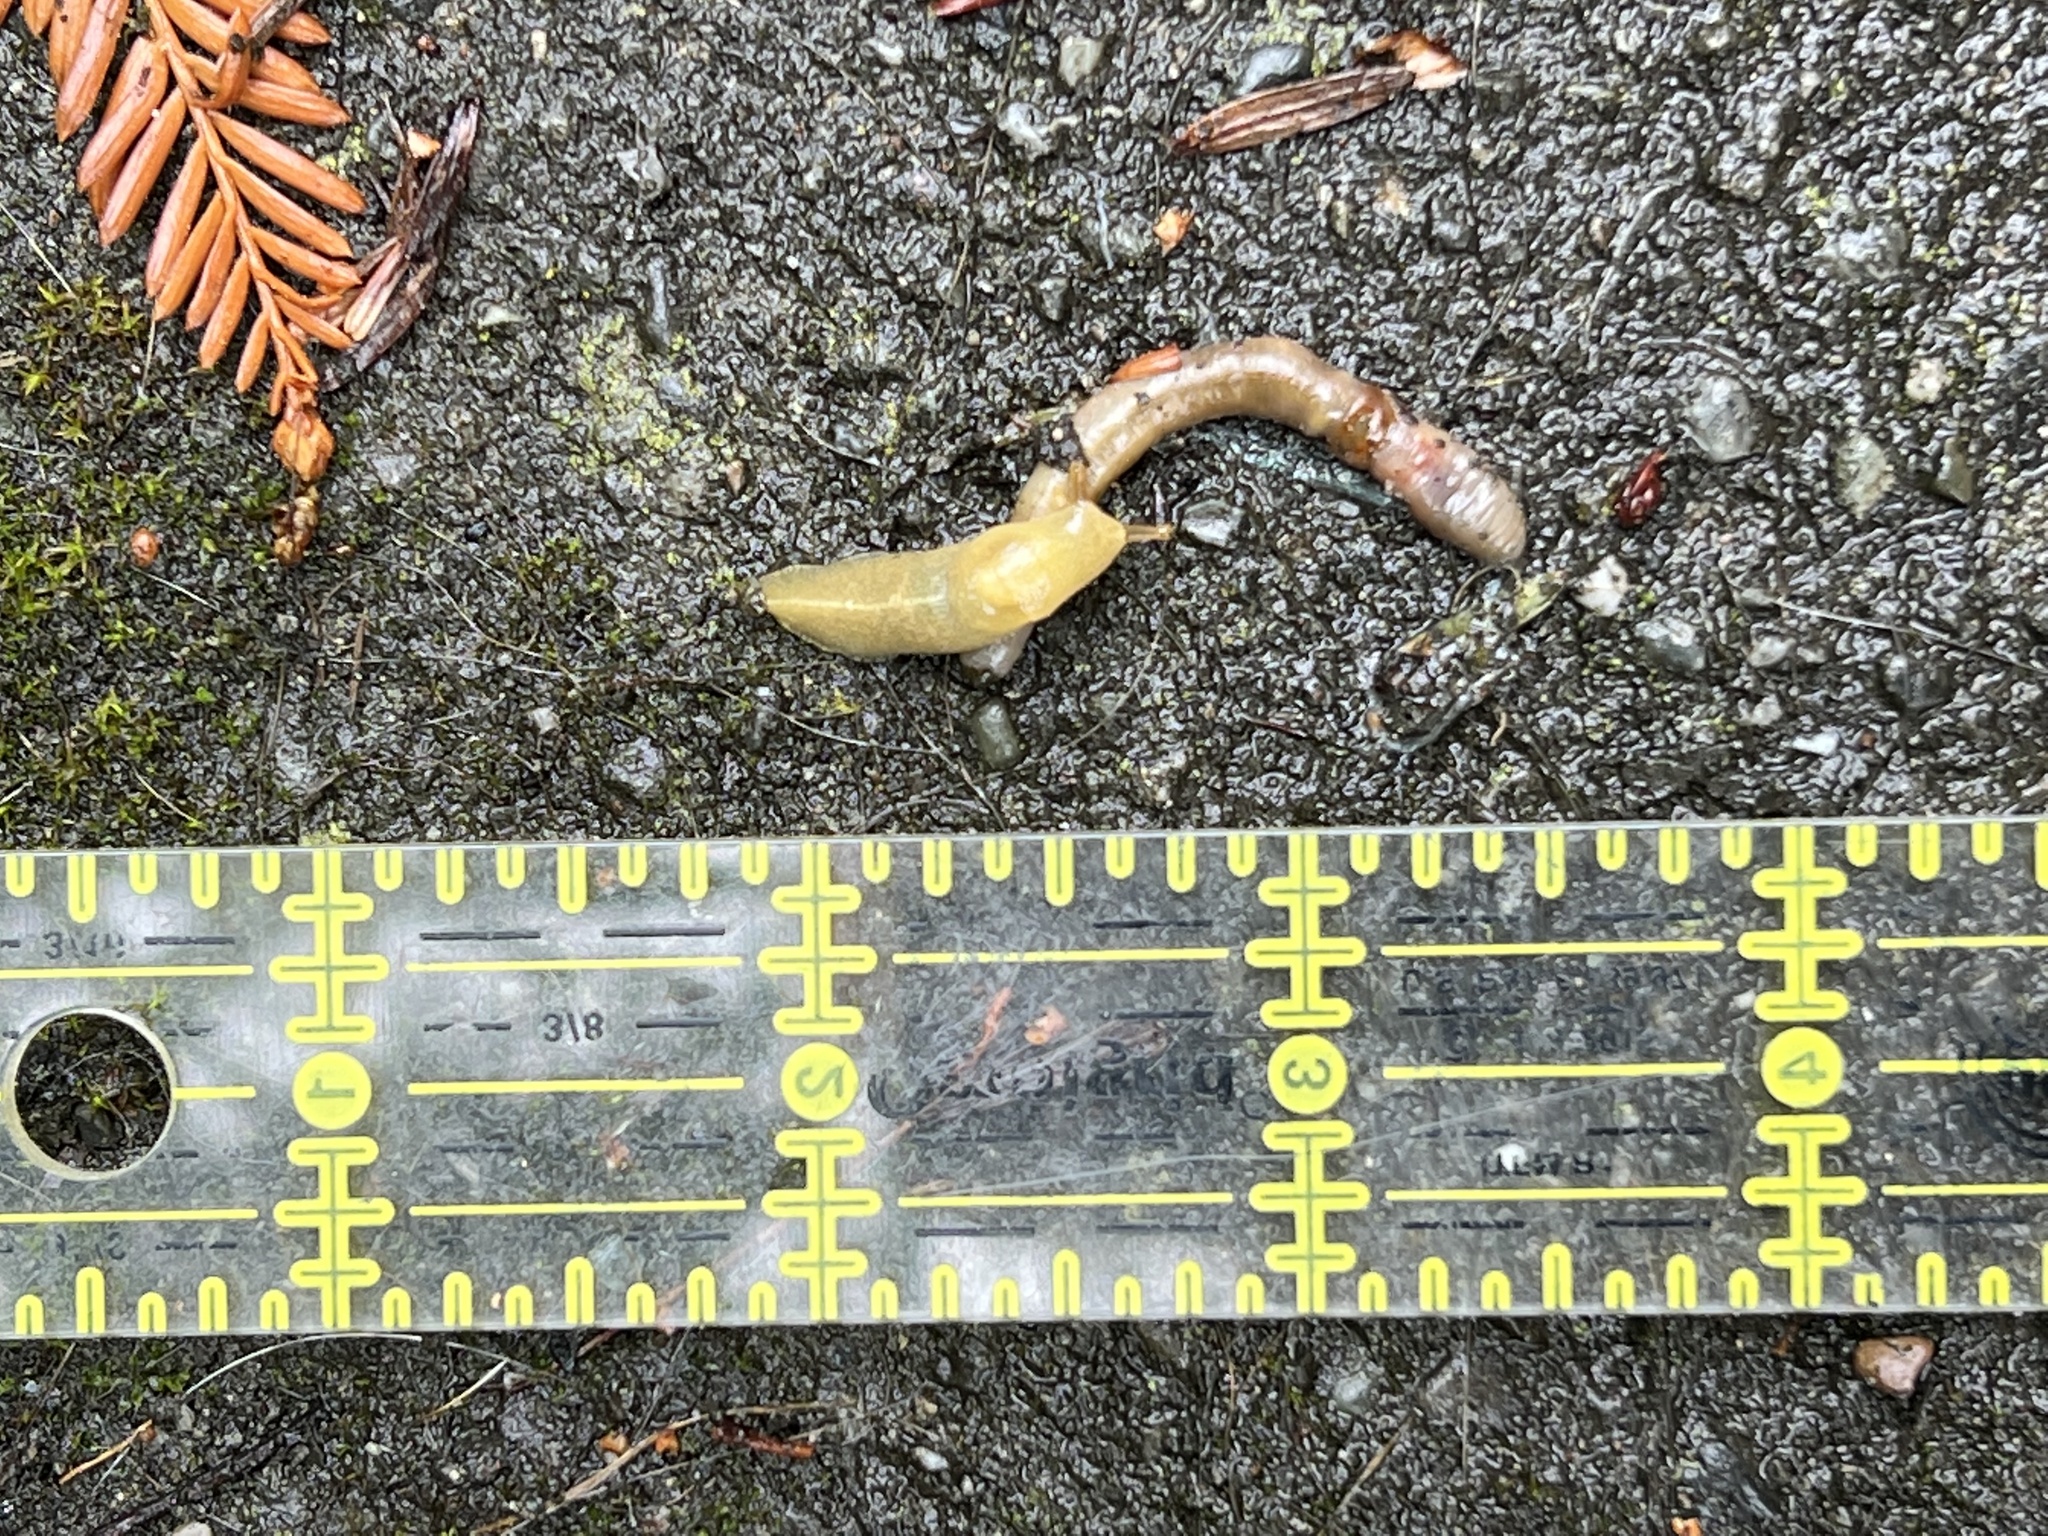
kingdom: Animalia
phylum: Mollusca
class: Gastropoda
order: Stylommatophora
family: Ariolimacidae
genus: Ariolimax
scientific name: Ariolimax columbianus
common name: Pacific banana slug
